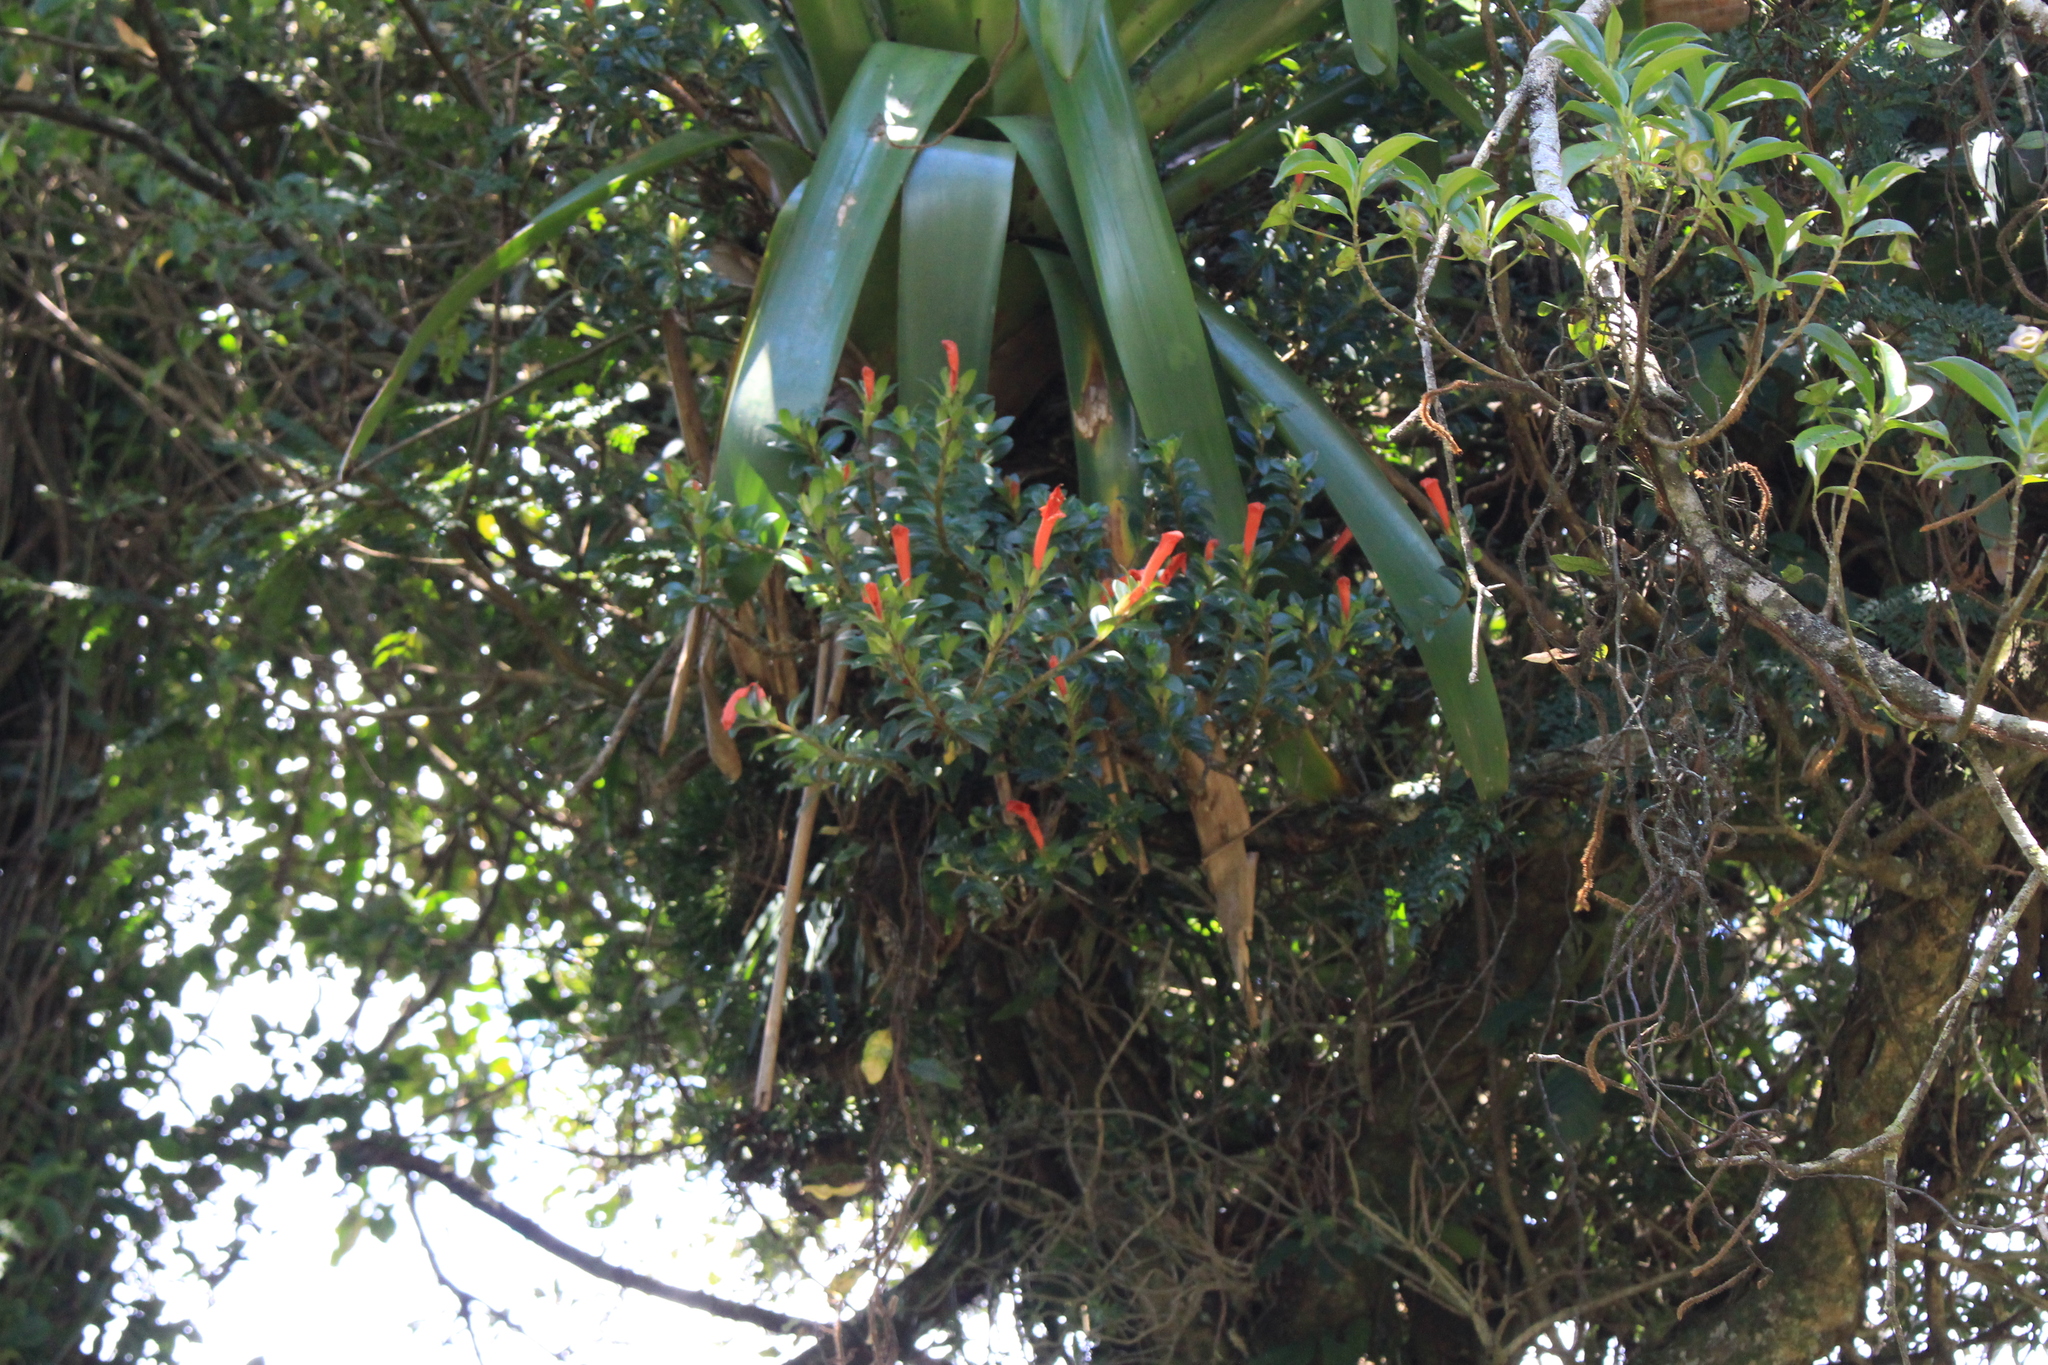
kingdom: Plantae
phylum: Tracheophyta
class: Magnoliopsida
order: Lamiales
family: Gesneriaceae
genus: Columnea
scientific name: Columnea glabra
